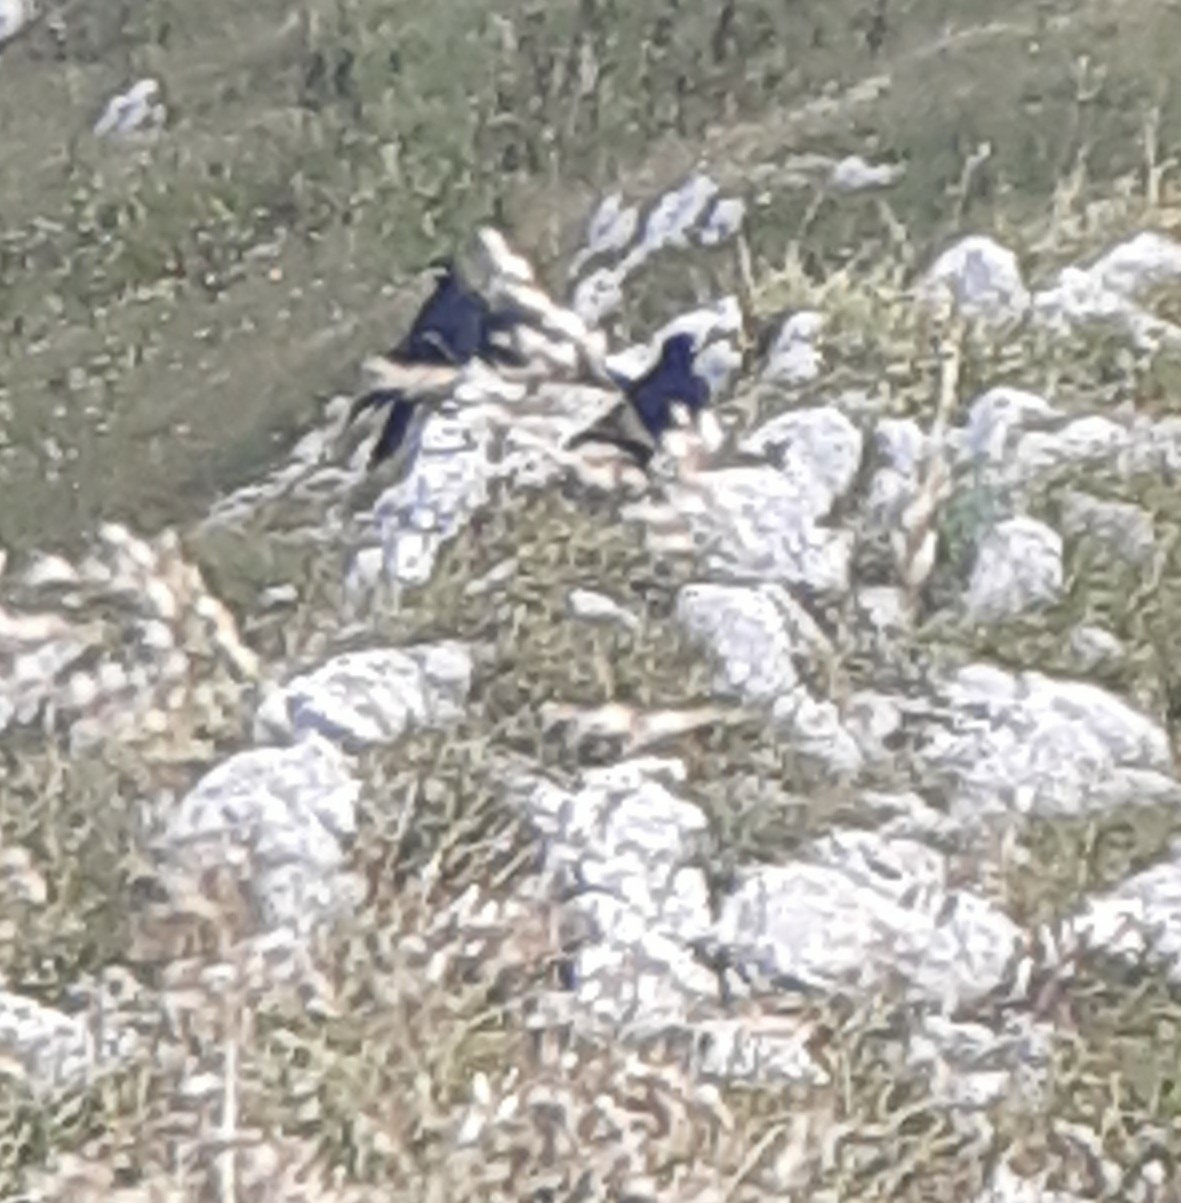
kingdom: Animalia
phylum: Chordata
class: Aves
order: Passeriformes
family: Corvidae
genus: Pyrrhocorax
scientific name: Pyrrhocorax graculus
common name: Alpine chough
